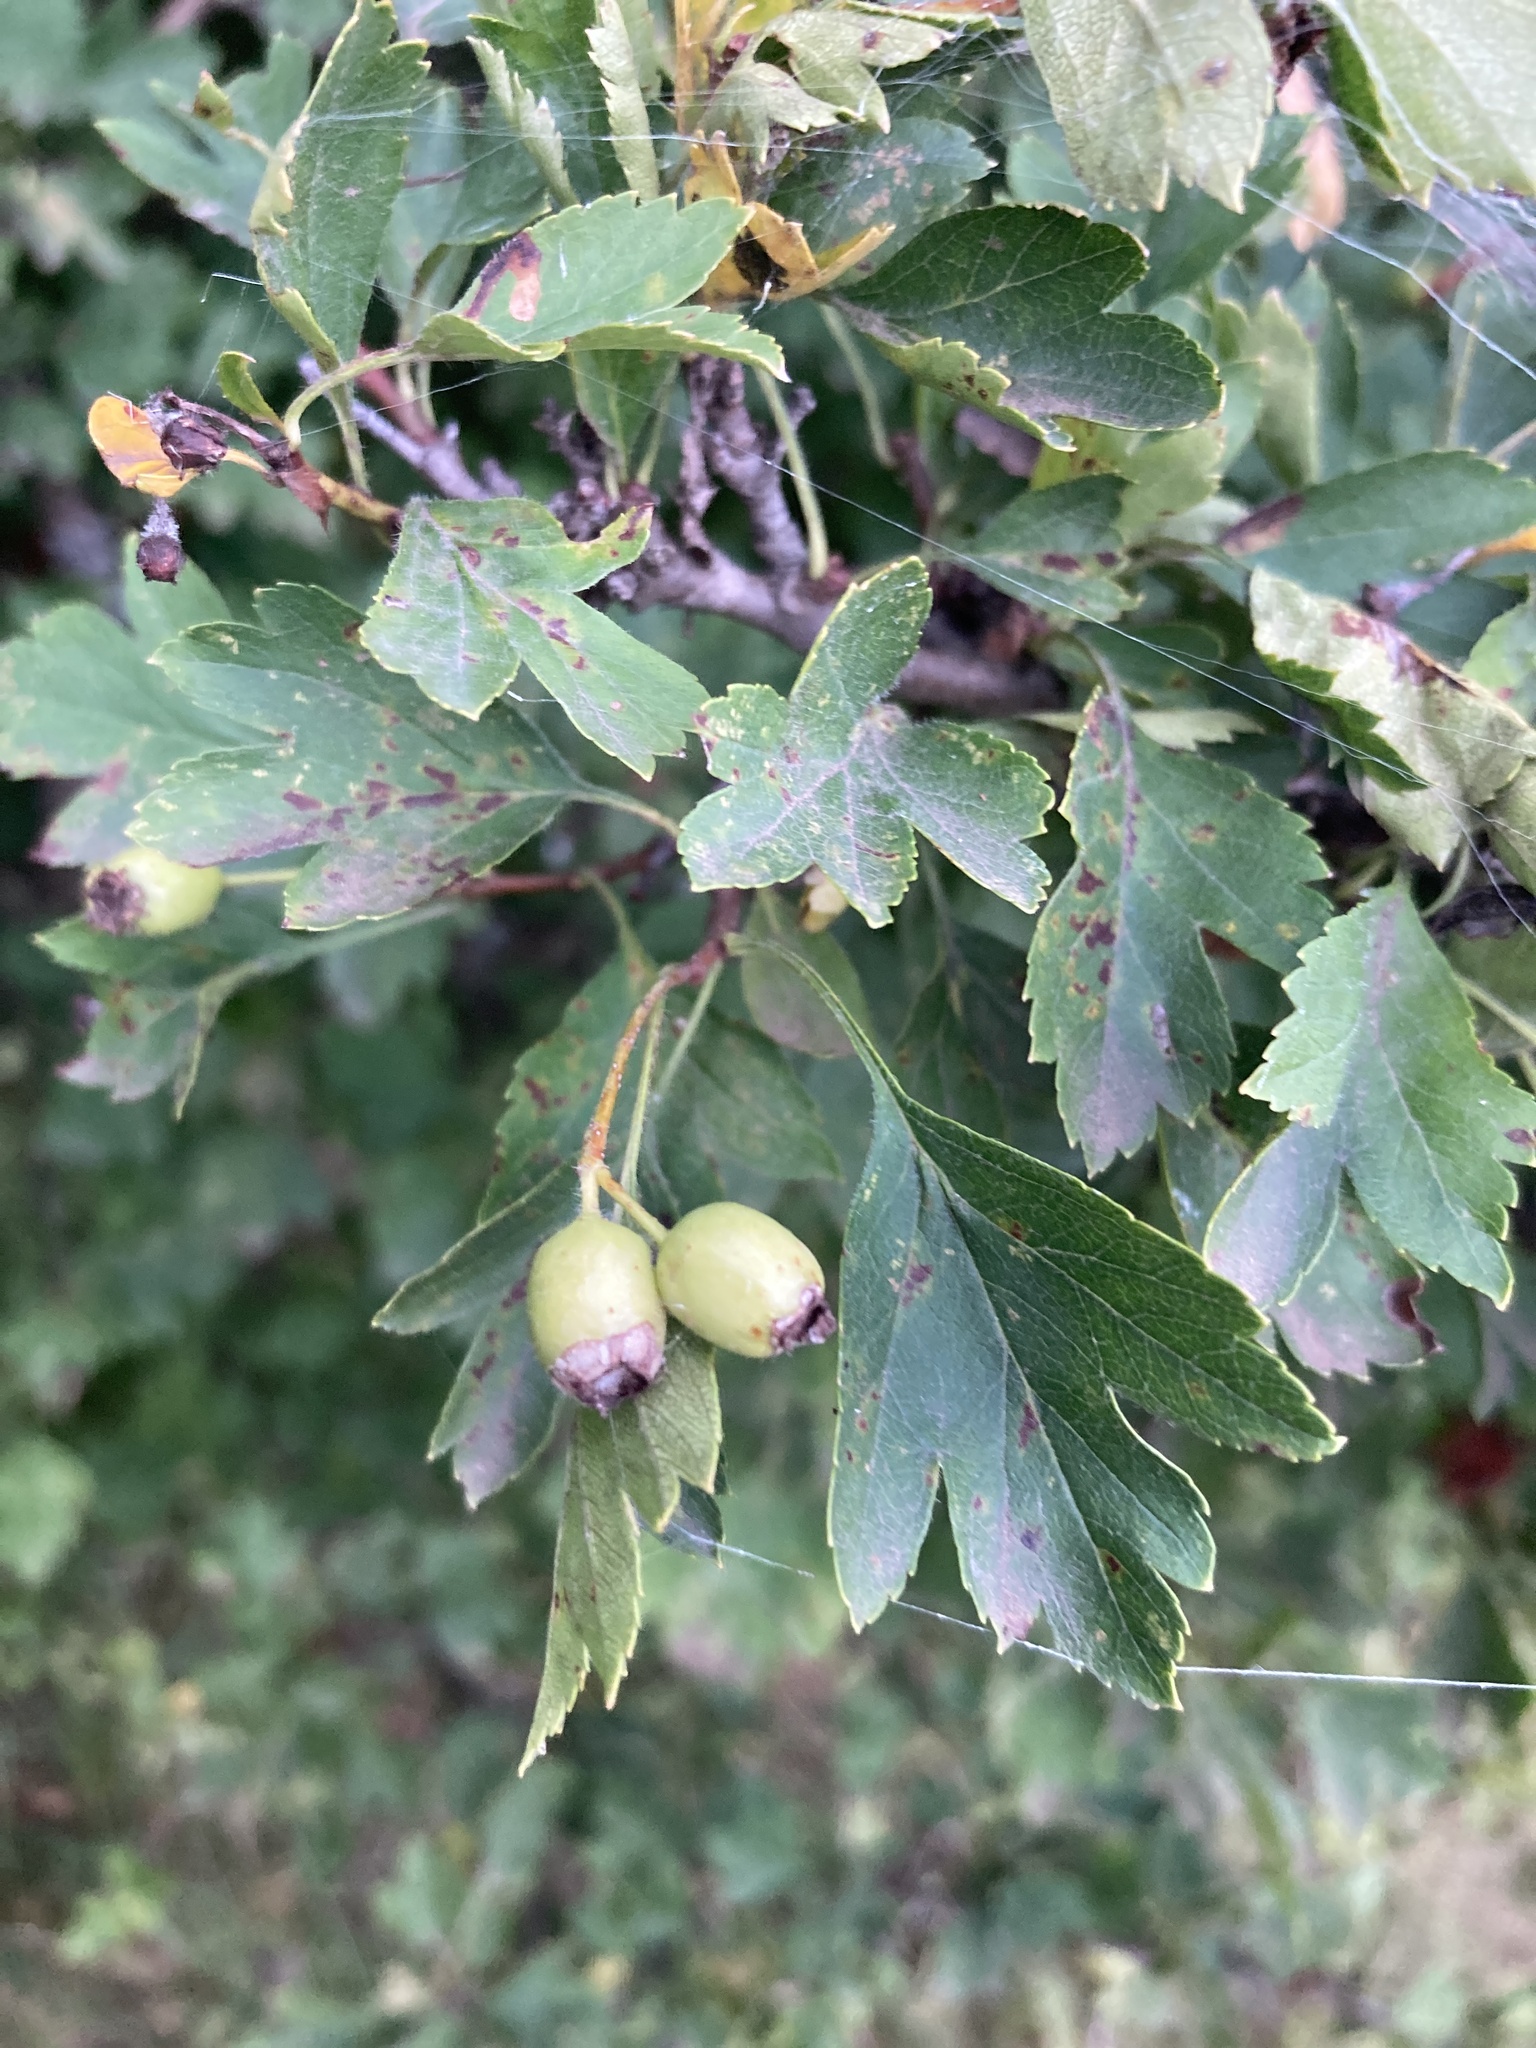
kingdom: Plantae
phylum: Tracheophyta
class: Magnoliopsida
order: Rosales
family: Rosaceae
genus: Crataegus
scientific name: Crataegus monogyna
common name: Hawthorn
